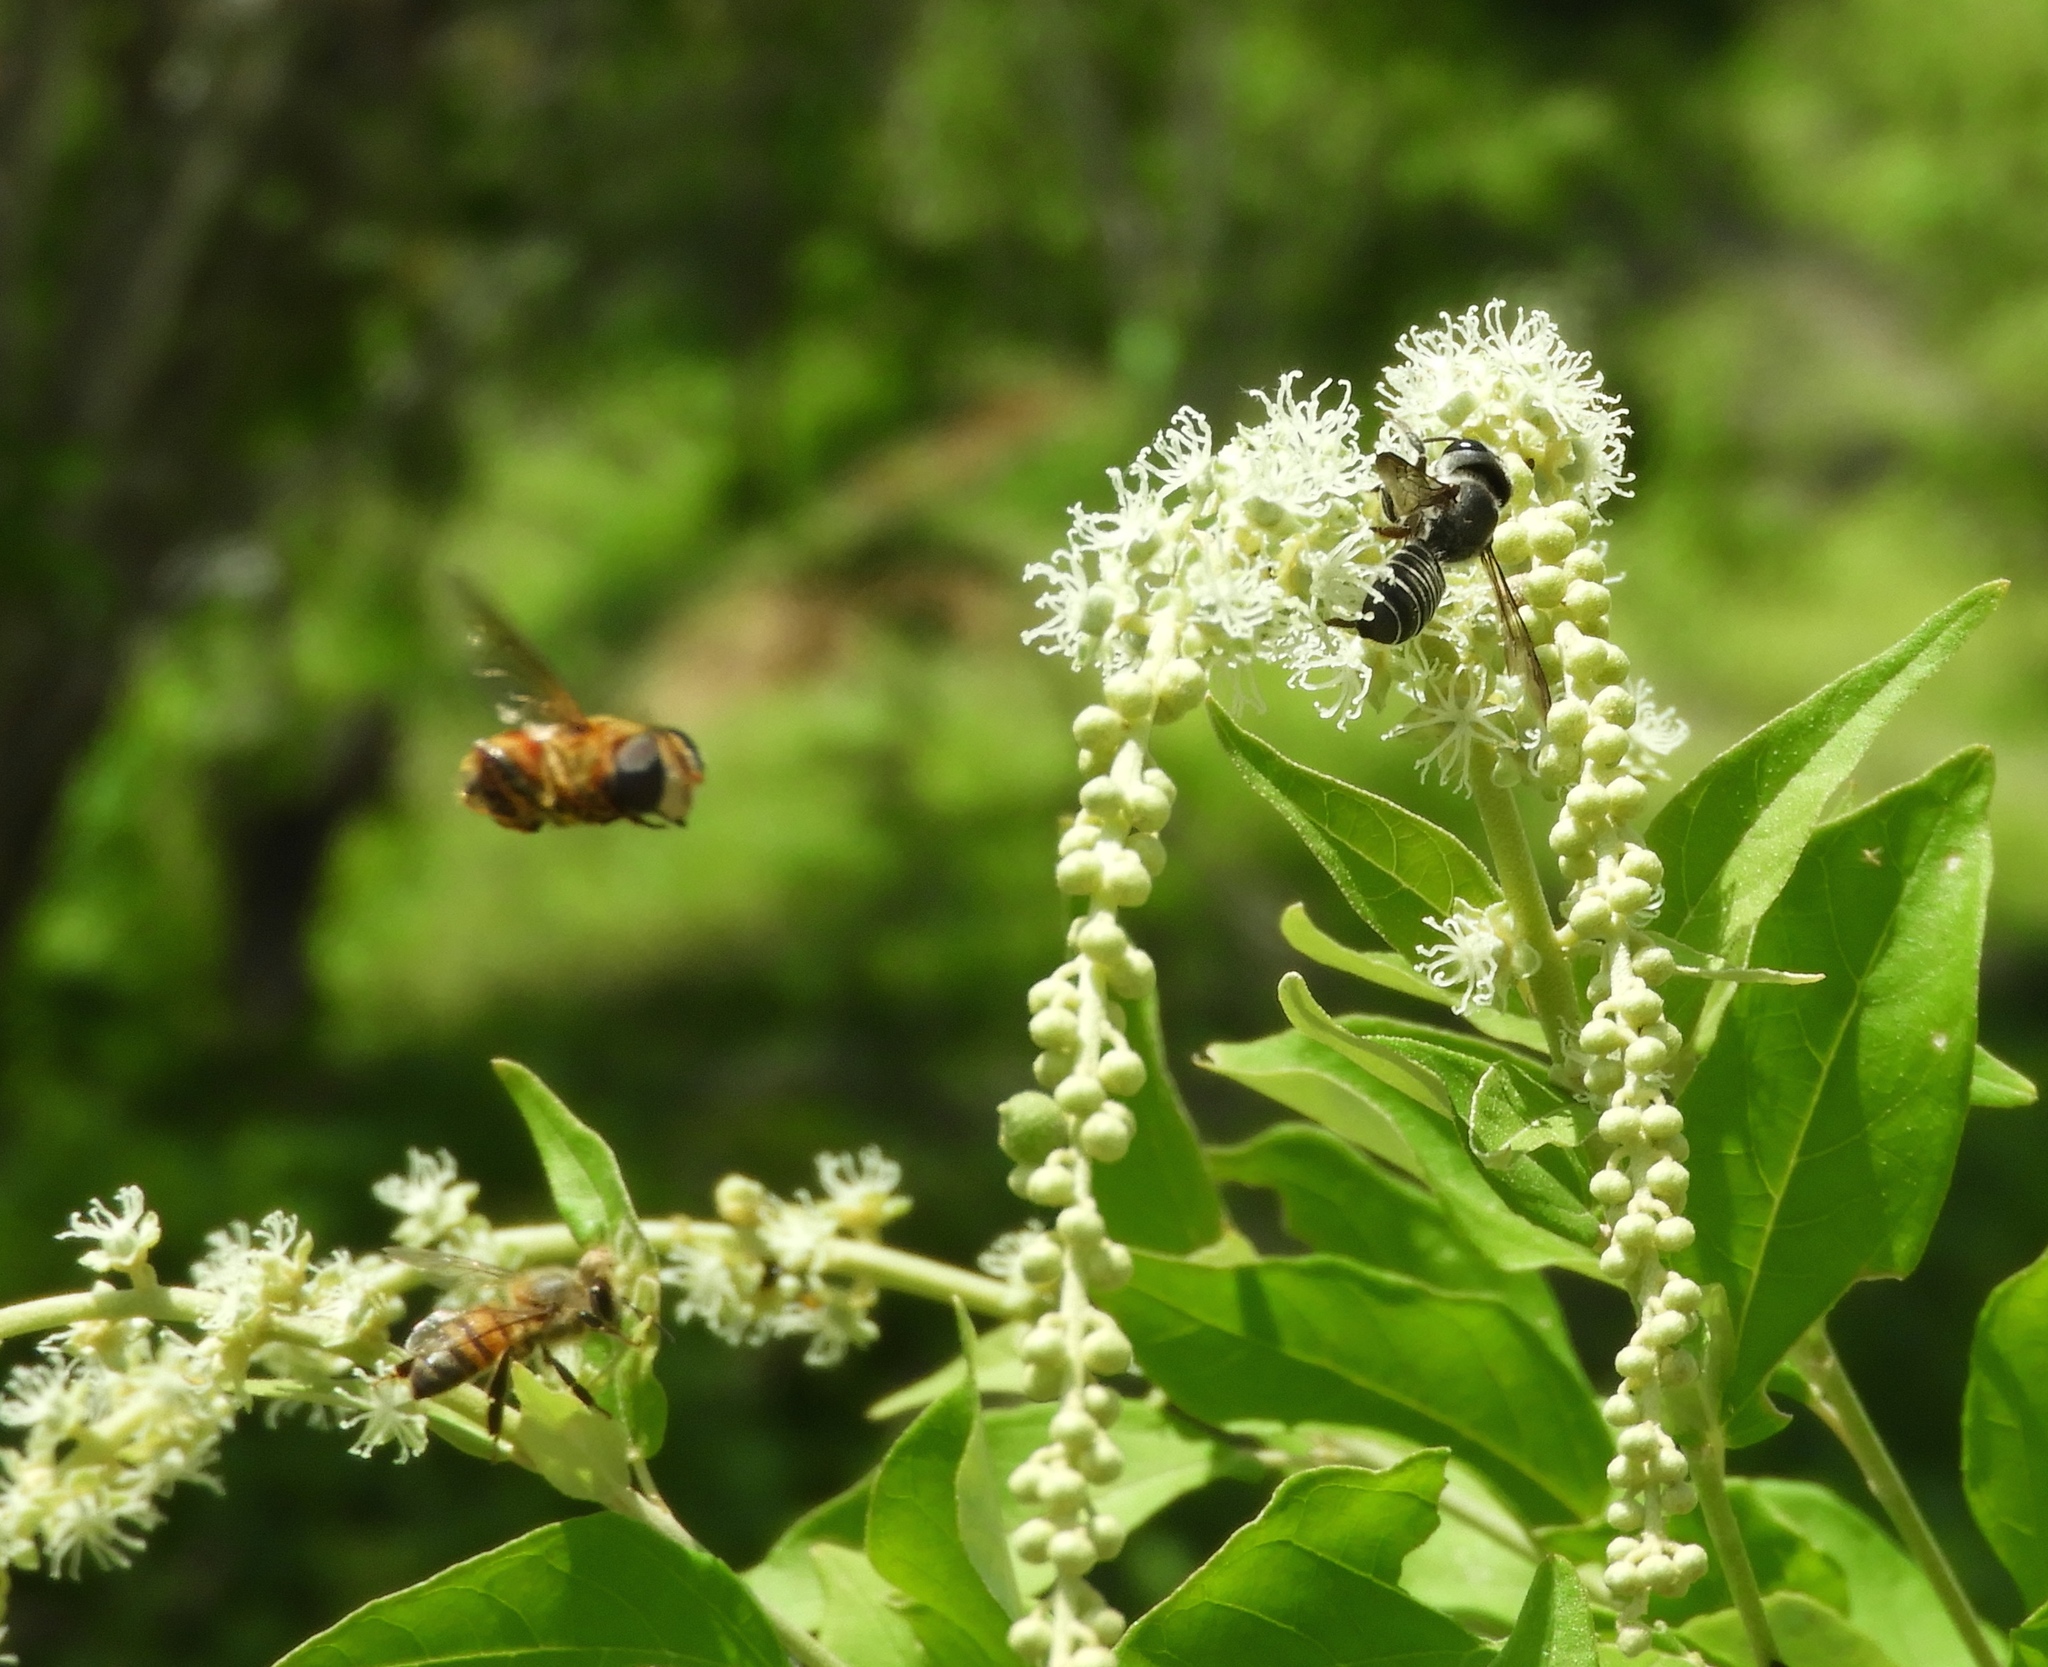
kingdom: Animalia
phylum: Arthropoda
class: Insecta
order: Hymenoptera
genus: Sayapis
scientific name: Sayapis
